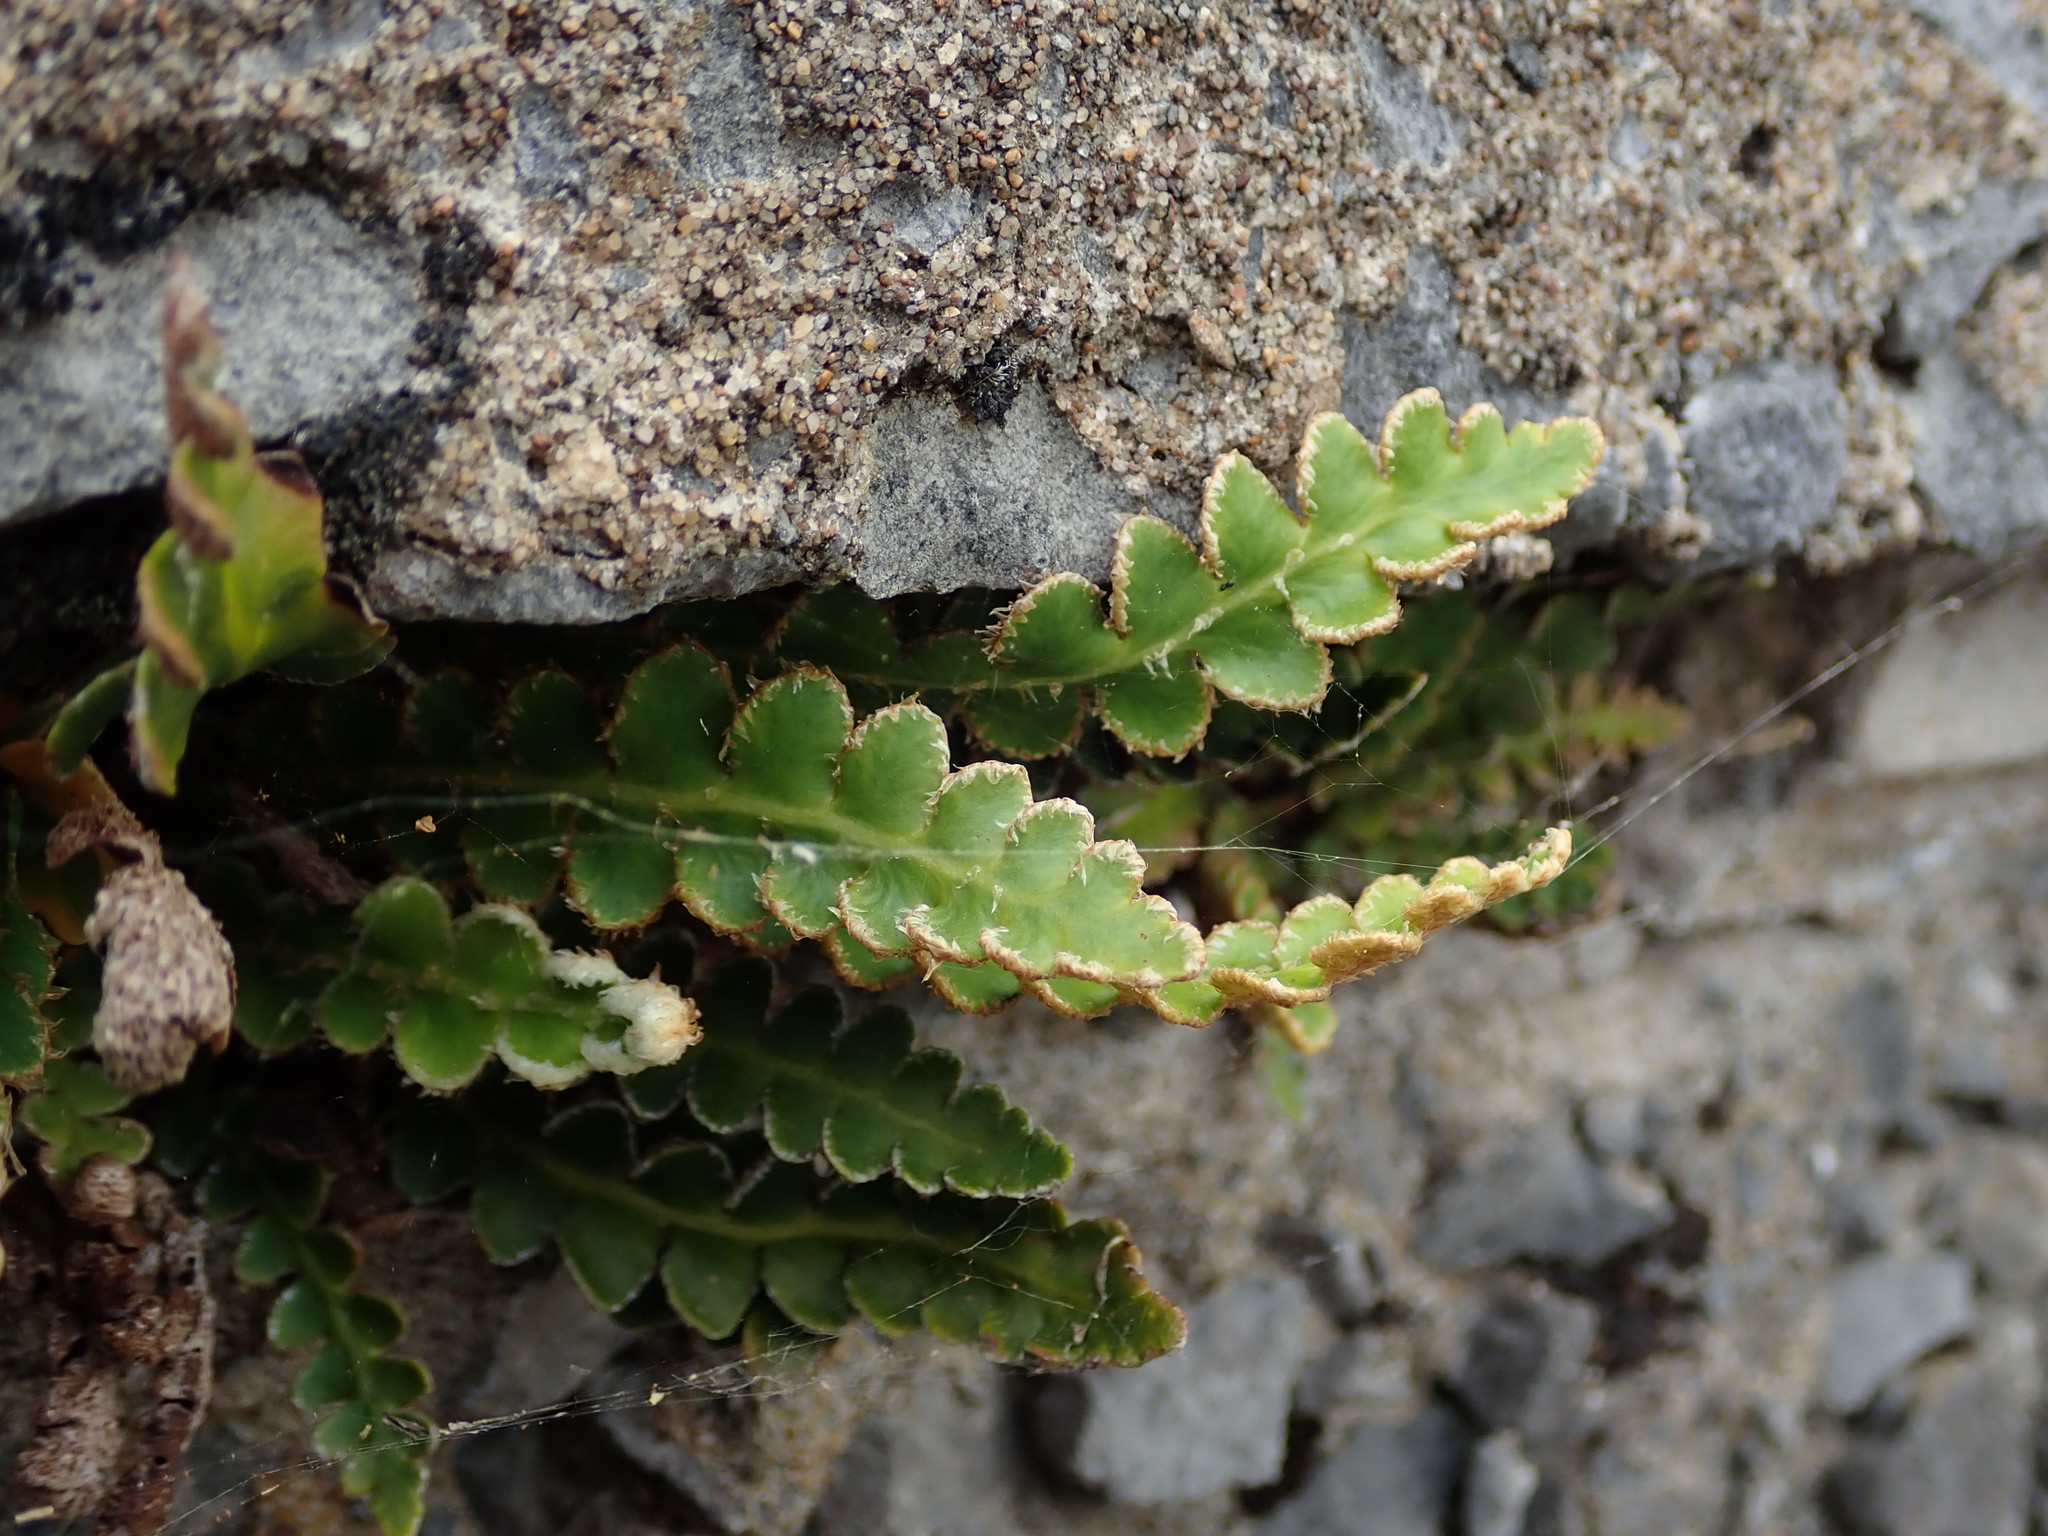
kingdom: Plantae
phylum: Tracheophyta
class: Polypodiopsida
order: Polypodiales
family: Aspleniaceae
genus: Asplenium
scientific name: Asplenium ceterach
